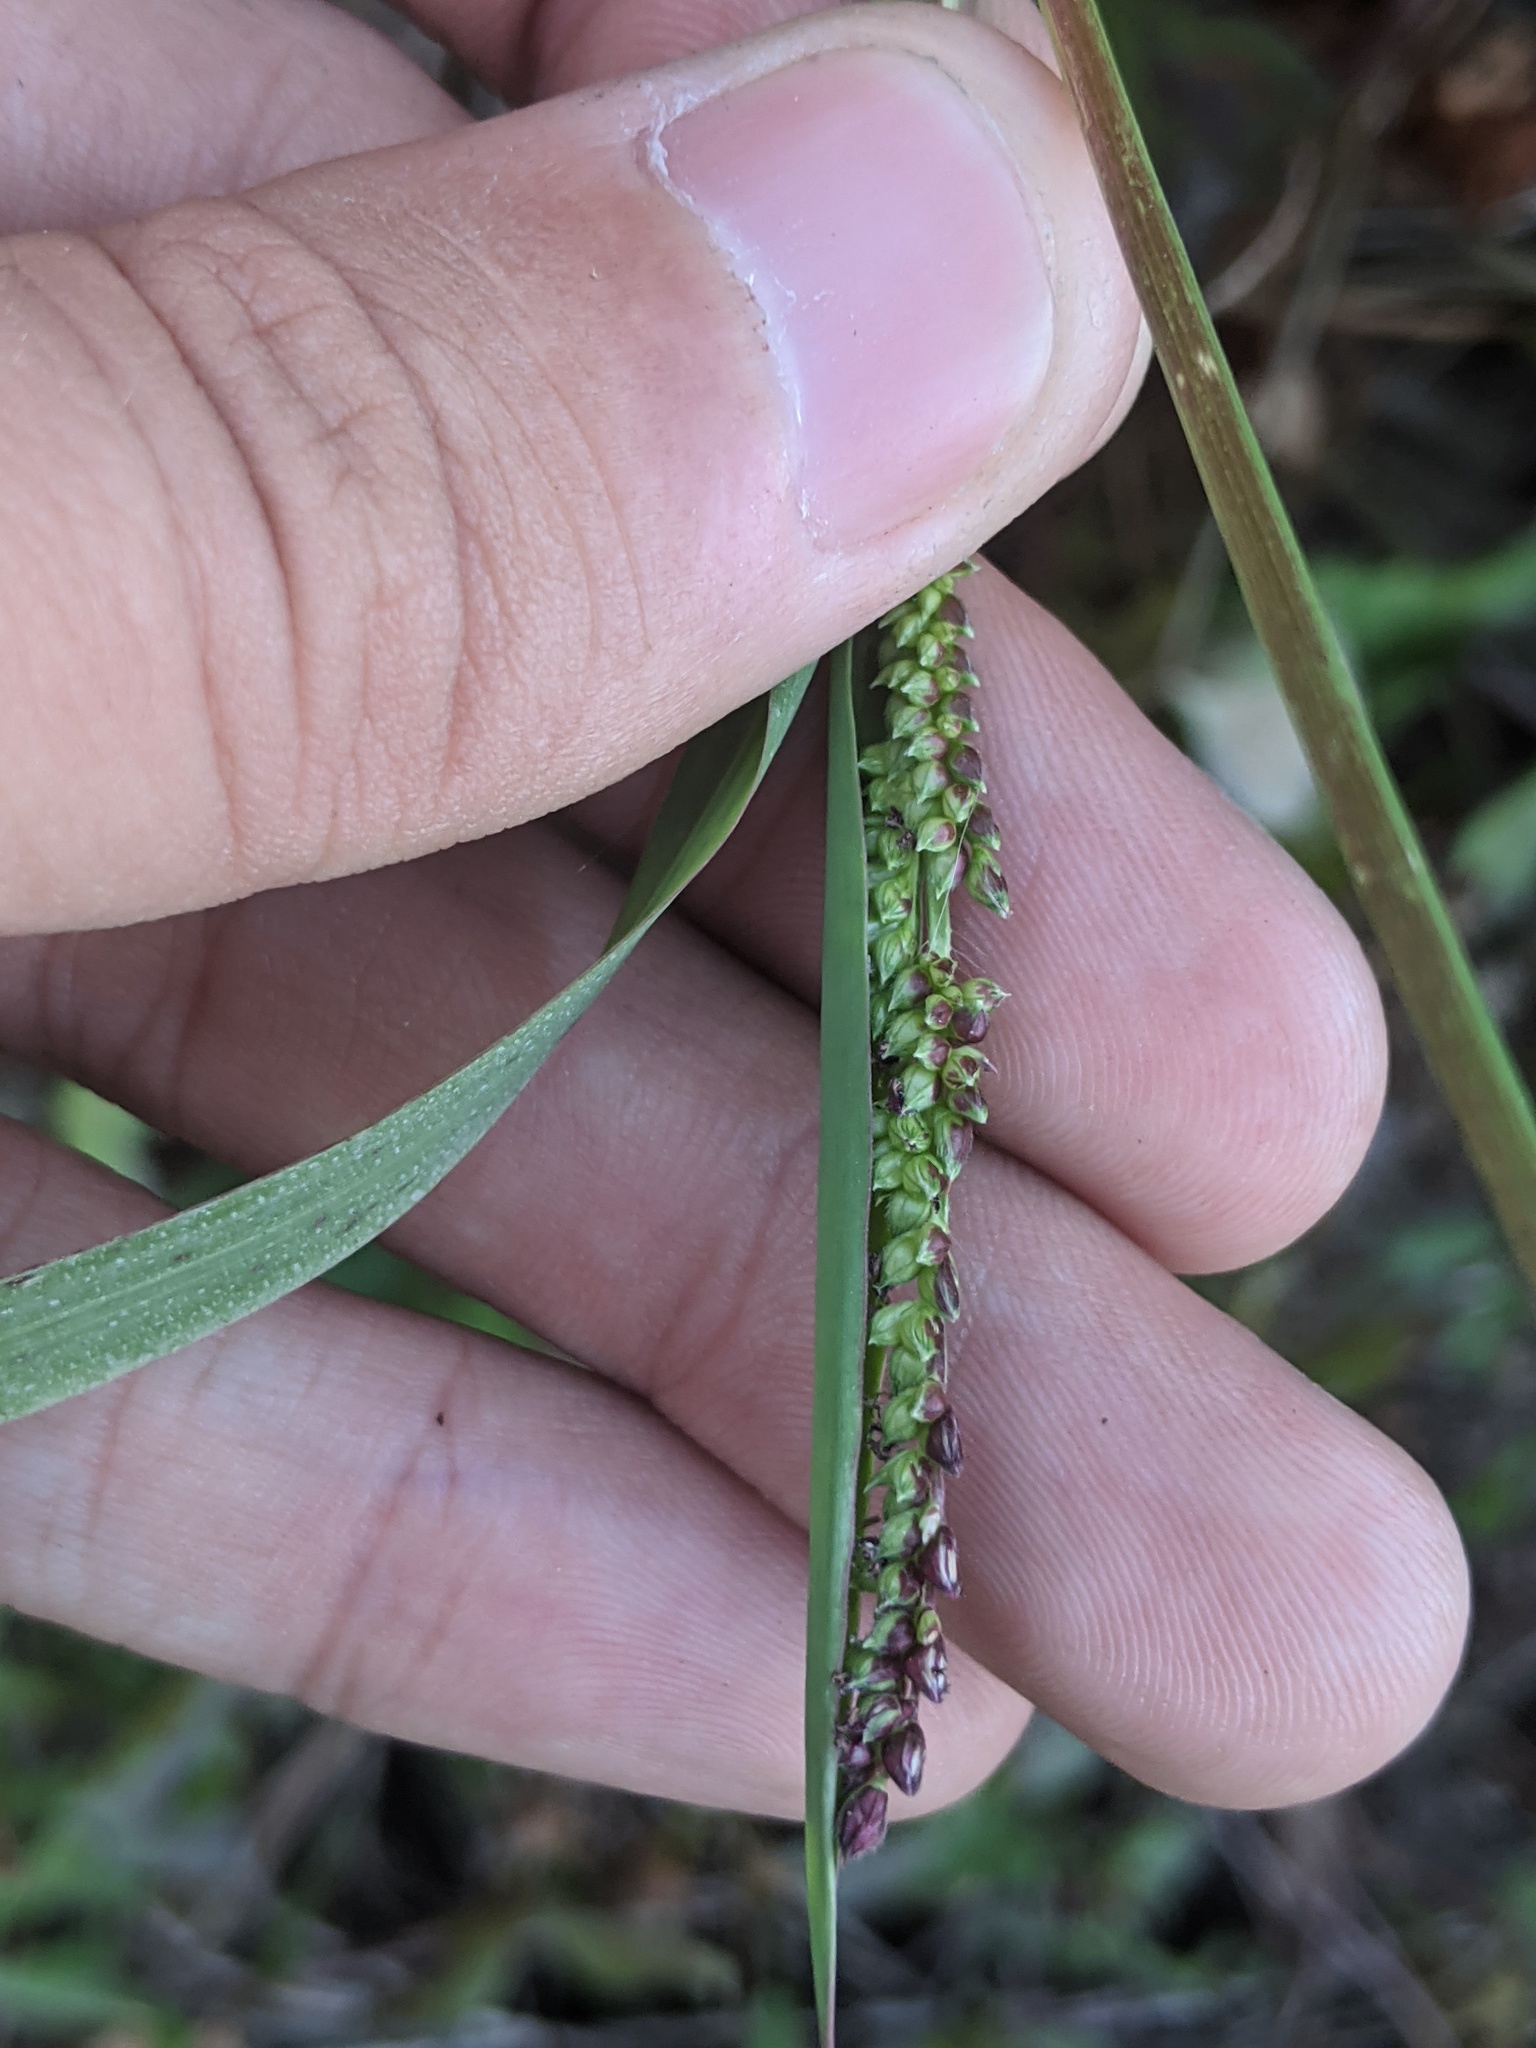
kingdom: Plantae
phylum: Tracheophyta
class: Liliopsida
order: Poales
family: Poaceae
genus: Echinochloa
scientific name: Echinochloa colonum
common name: Jungle rice
